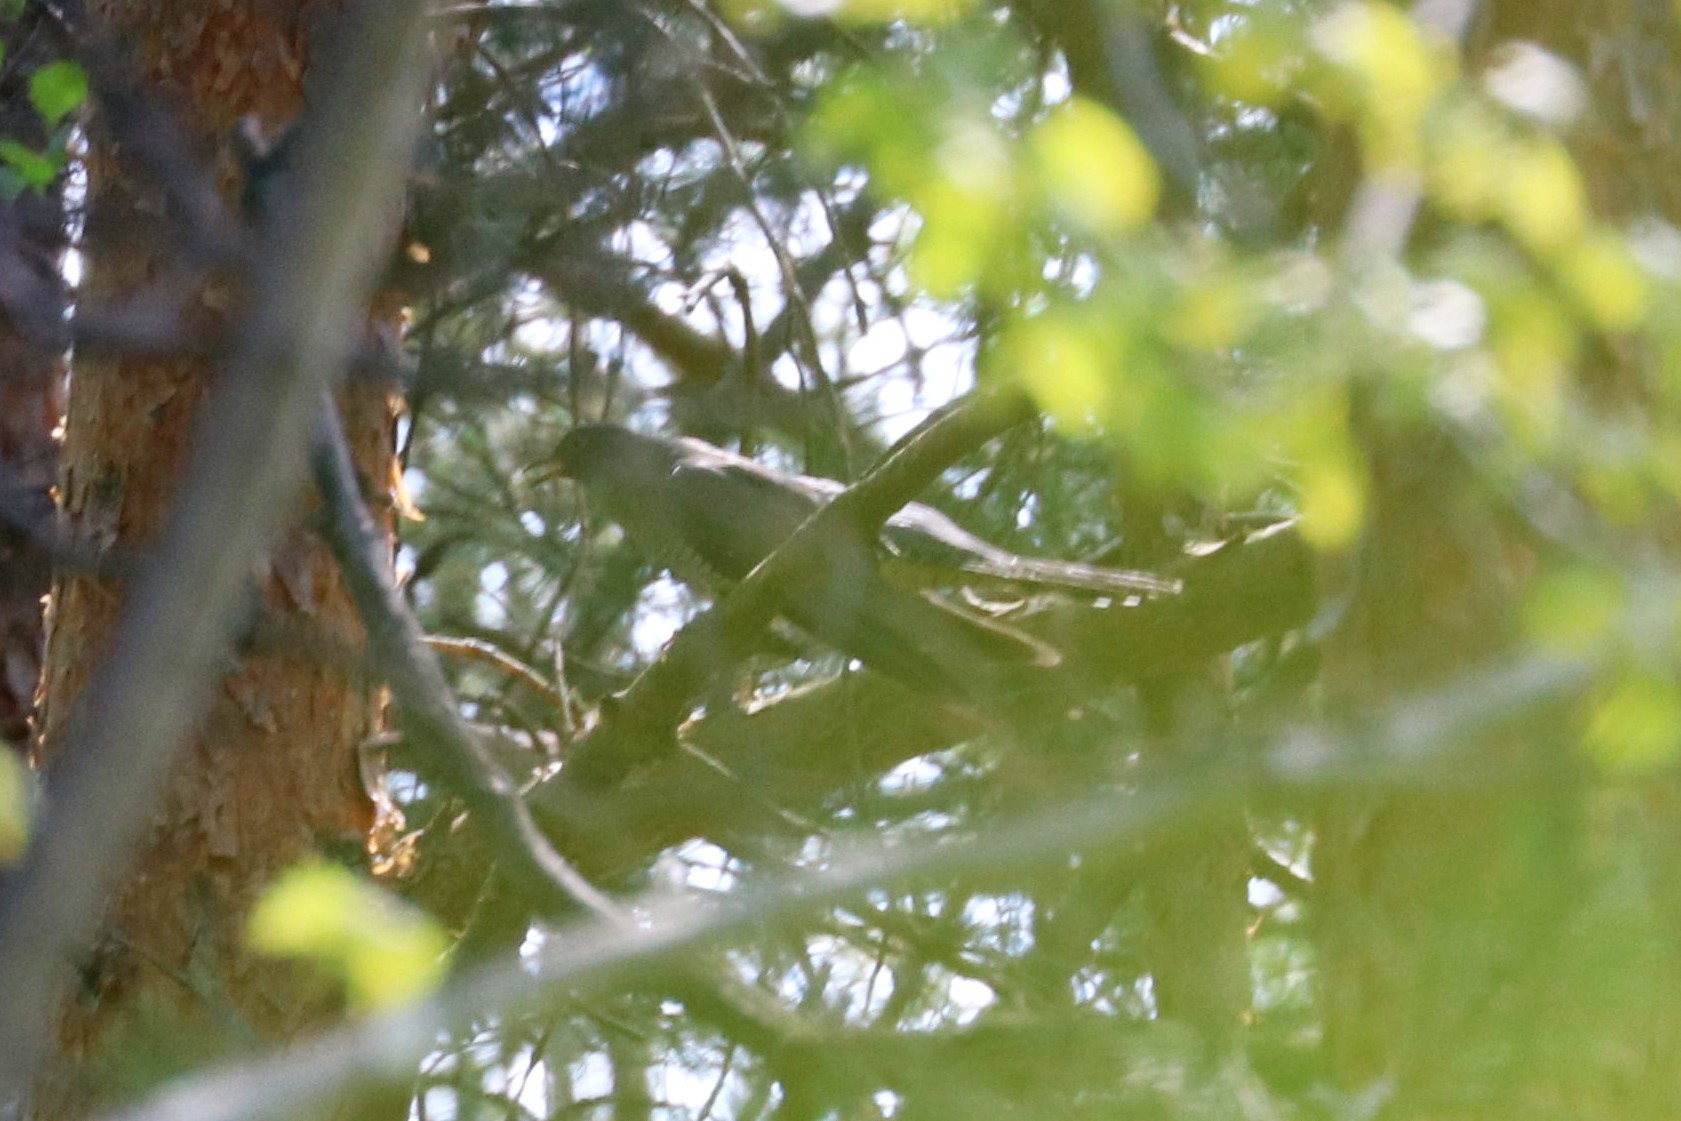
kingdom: Animalia
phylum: Chordata
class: Aves
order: Cuculiformes
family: Cuculidae
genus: Cuculus
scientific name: Cuculus canorus
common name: Common cuckoo
